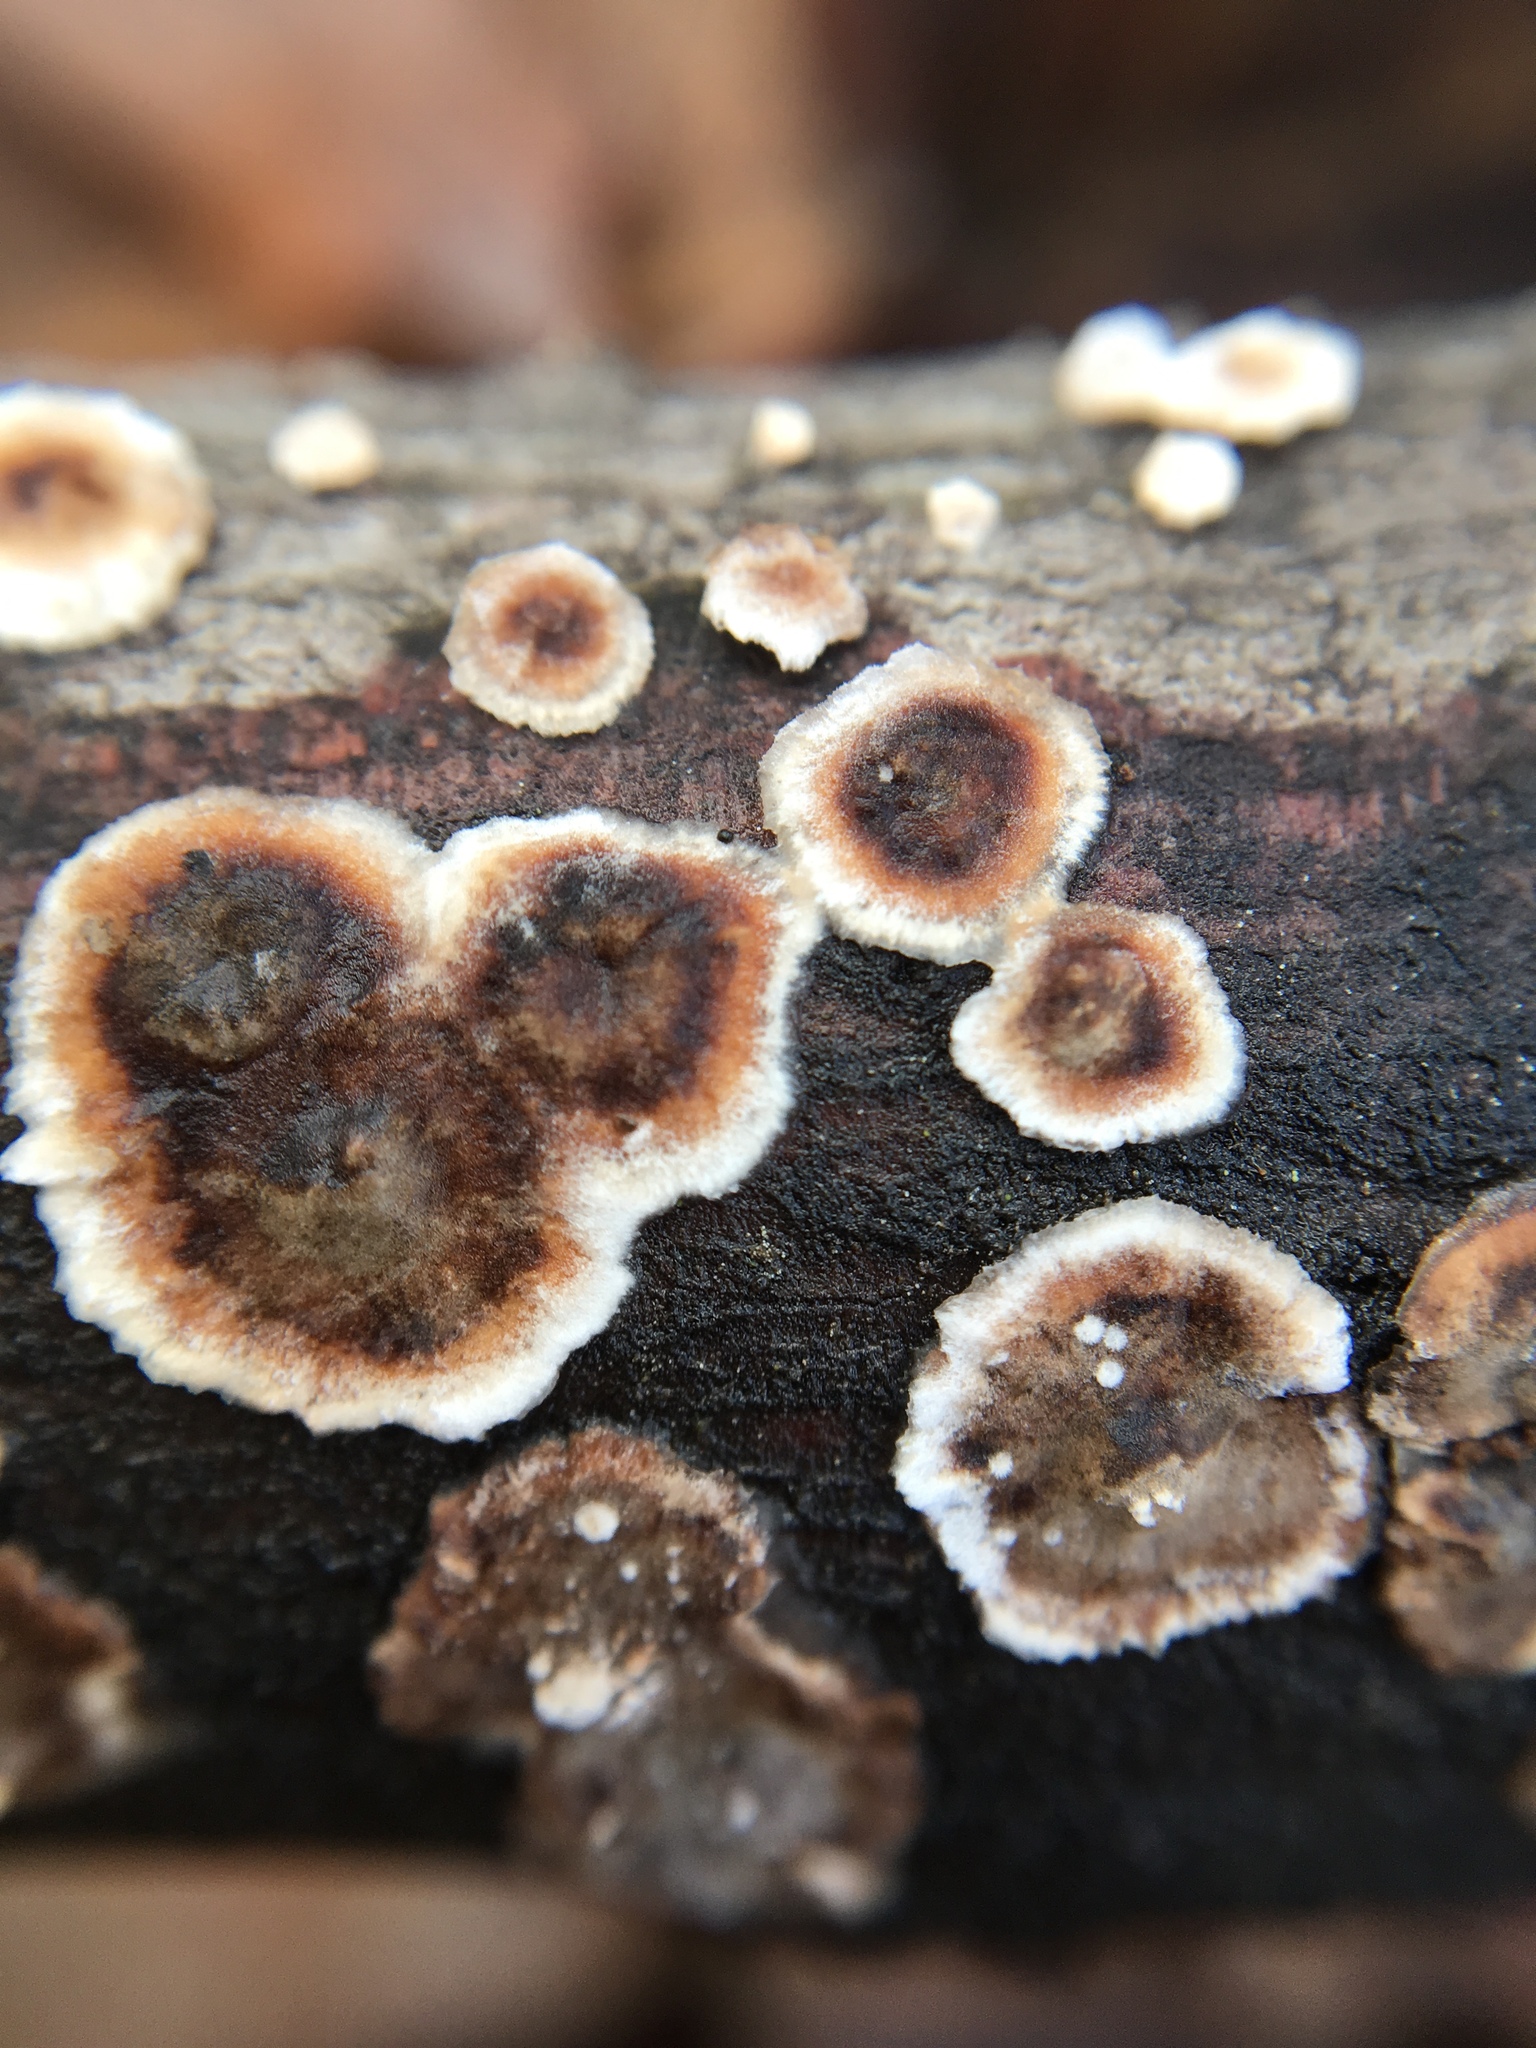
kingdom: Fungi
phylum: Basidiomycota
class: Agaricomycetes
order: Russulales
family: Peniophoraceae
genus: Peniophora
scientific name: Peniophora albobadia
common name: Giraffe spots
